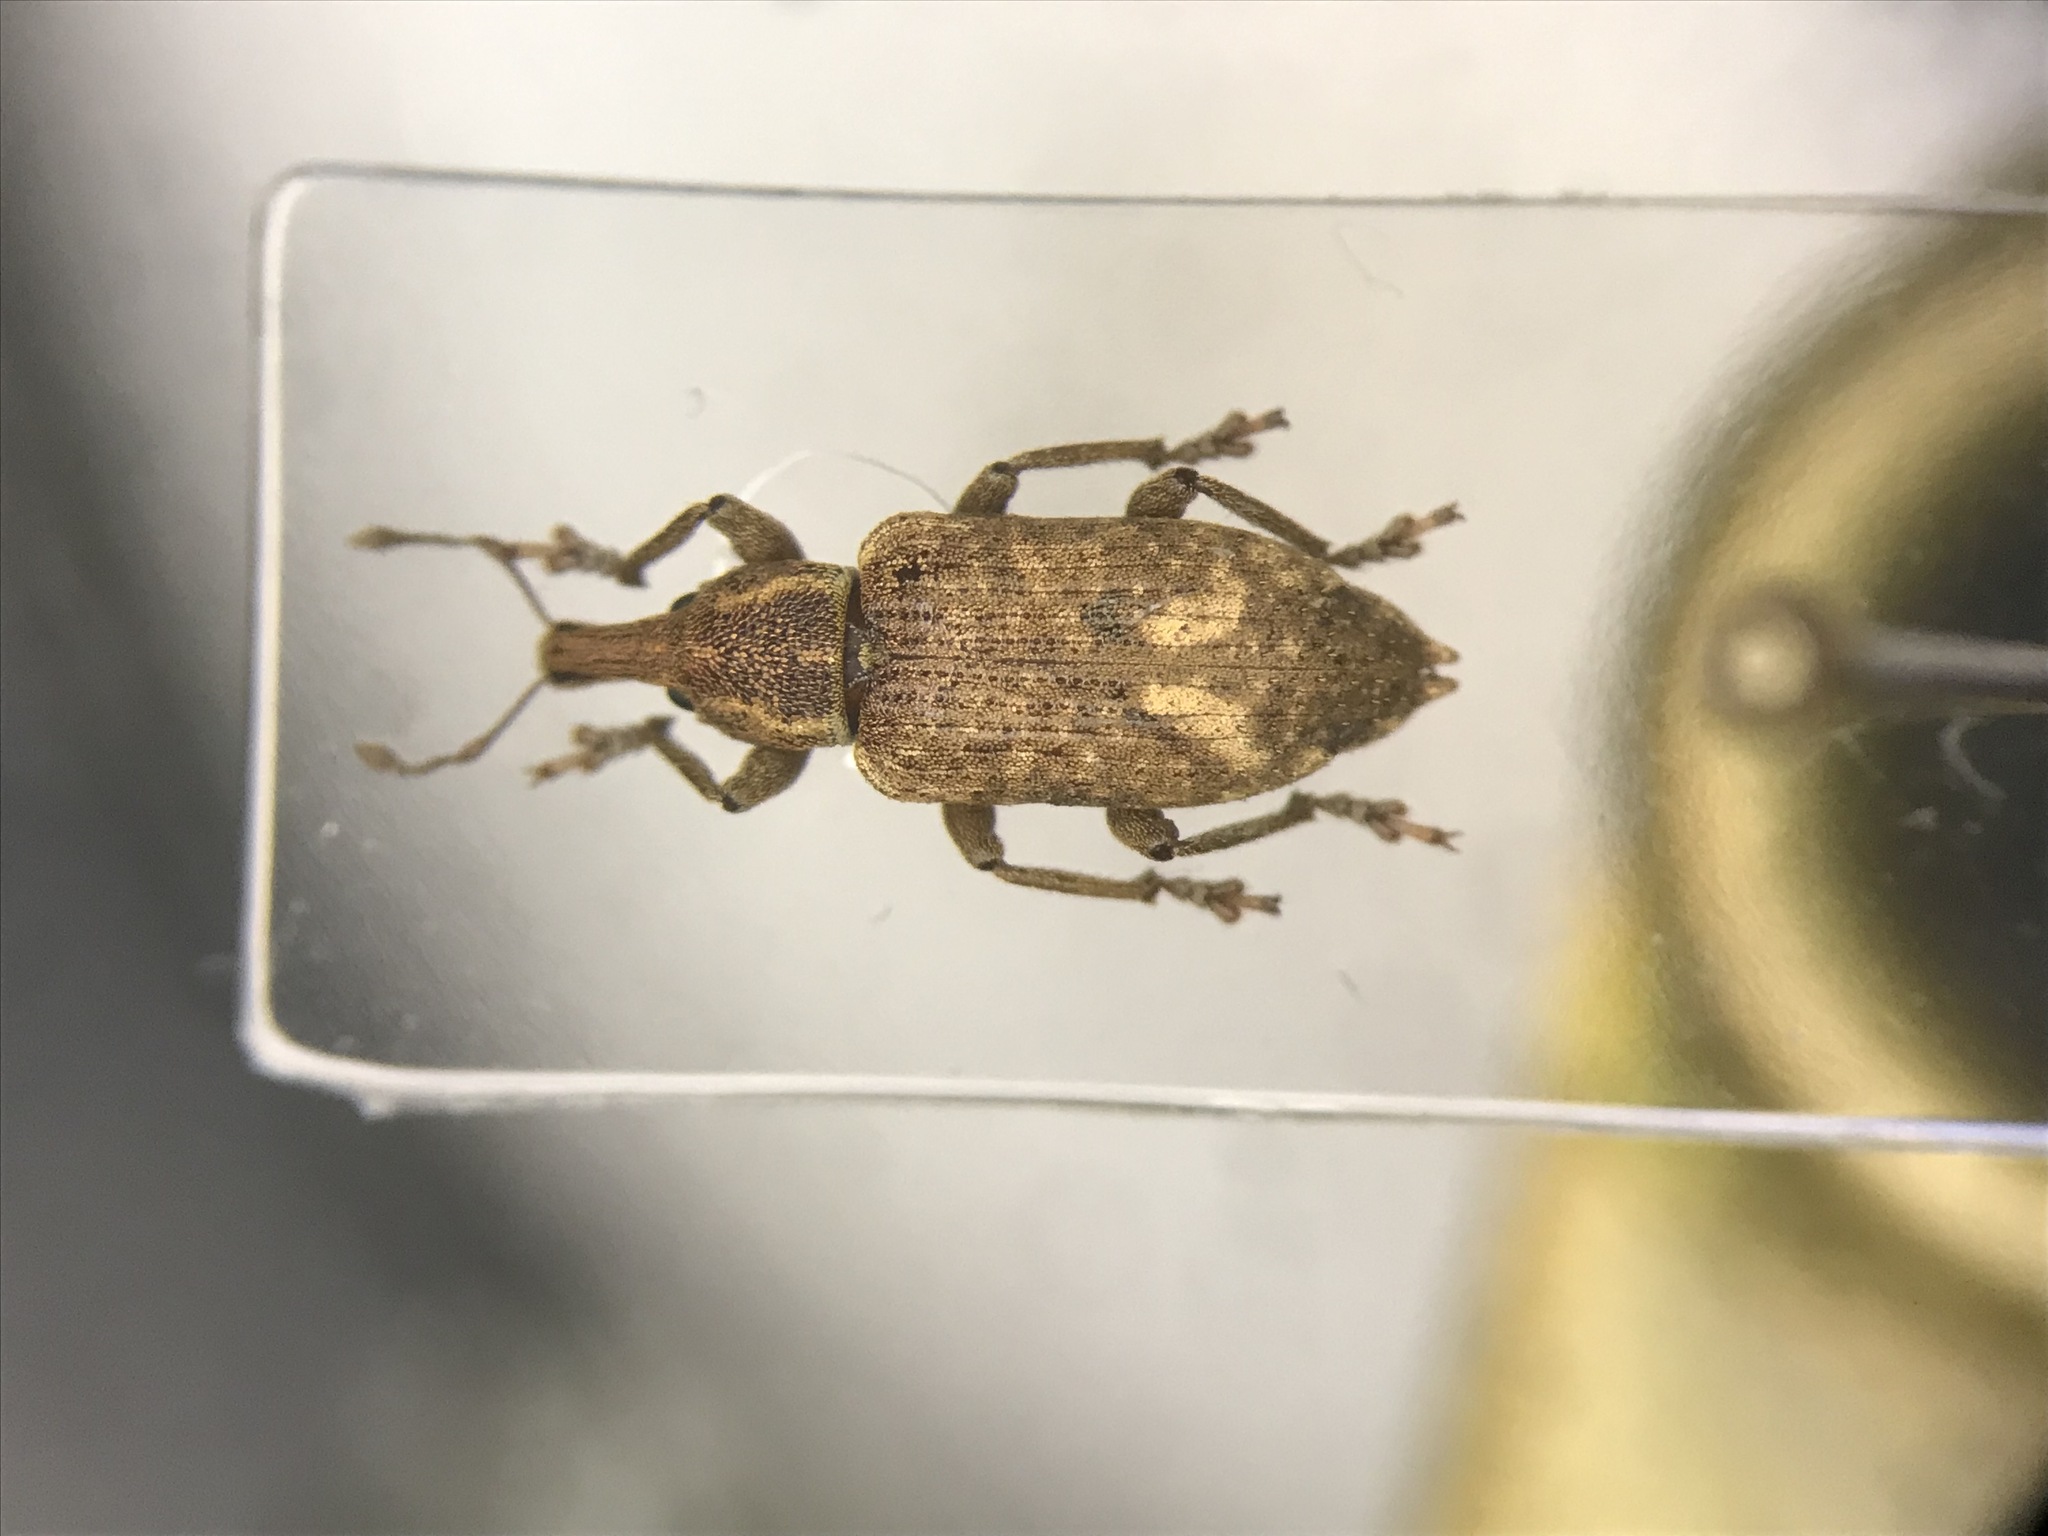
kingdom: Animalia
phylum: Arthropoda
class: Insecta
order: Coleoptera
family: Curculionidae
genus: Listronotus
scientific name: Listronotus appendiculatus
